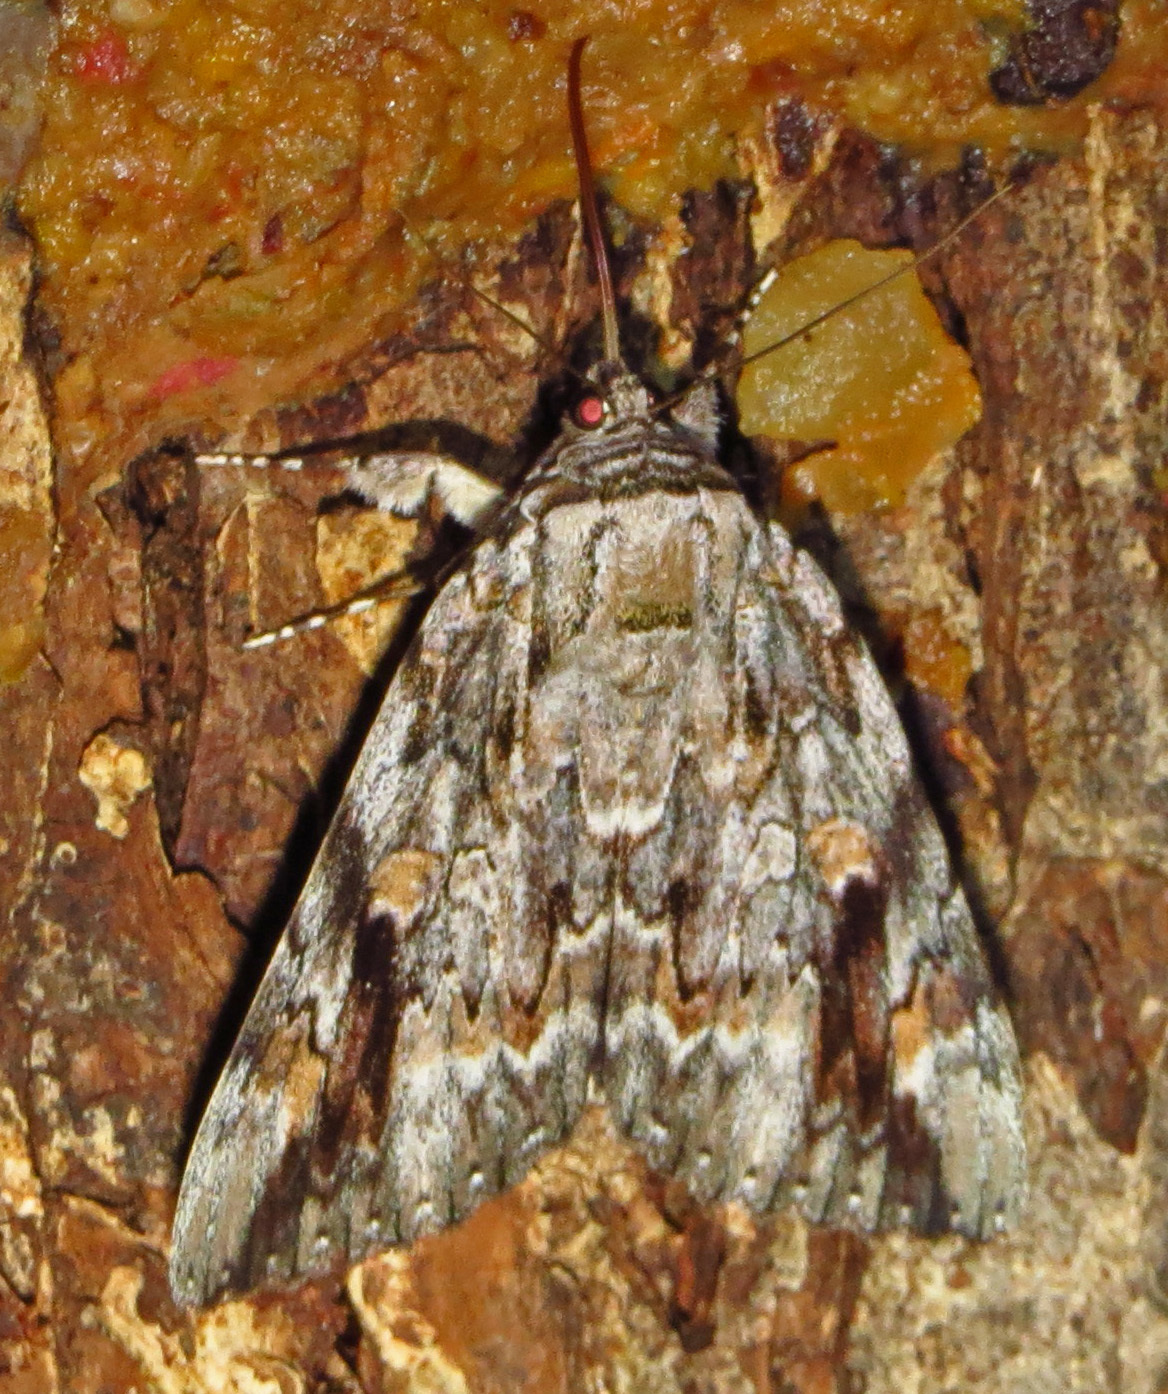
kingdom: Animalia
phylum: Arthropoda
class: Insecta
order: Lepidoptera
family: Erebidae
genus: Catocala
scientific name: Catocala maestosa
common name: Sad underwing
